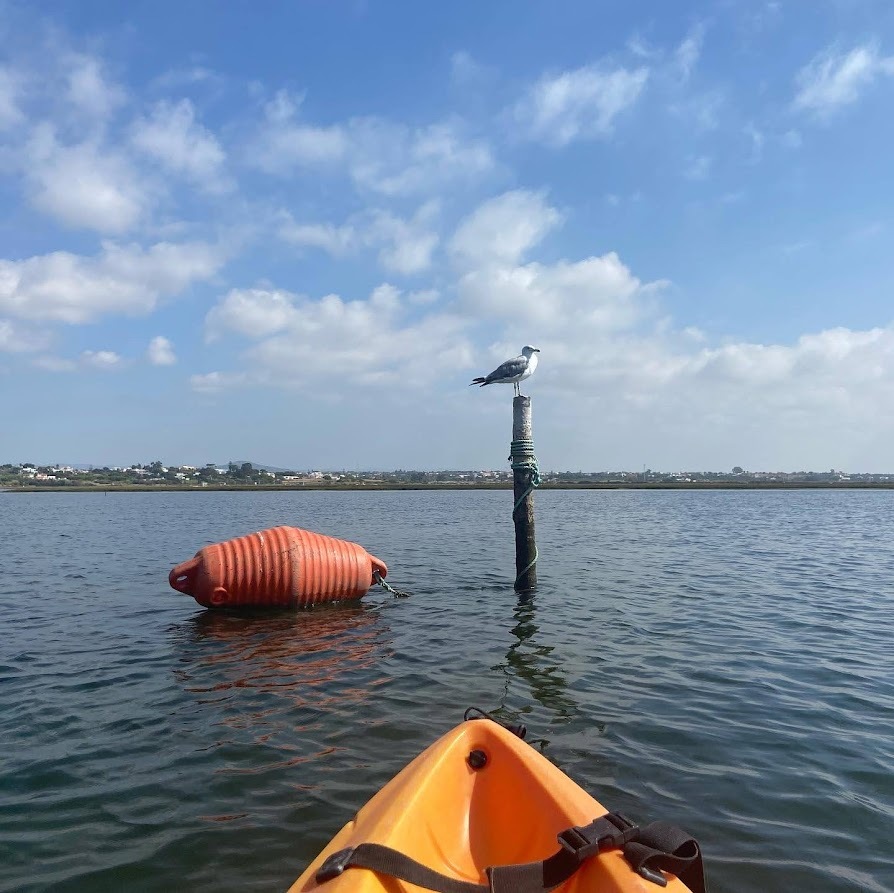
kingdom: Animalia
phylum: Chordata
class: Aves
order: Charadriiformes
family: Laridae
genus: Larus
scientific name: Larus michahellis
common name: Yellow-legged gull
